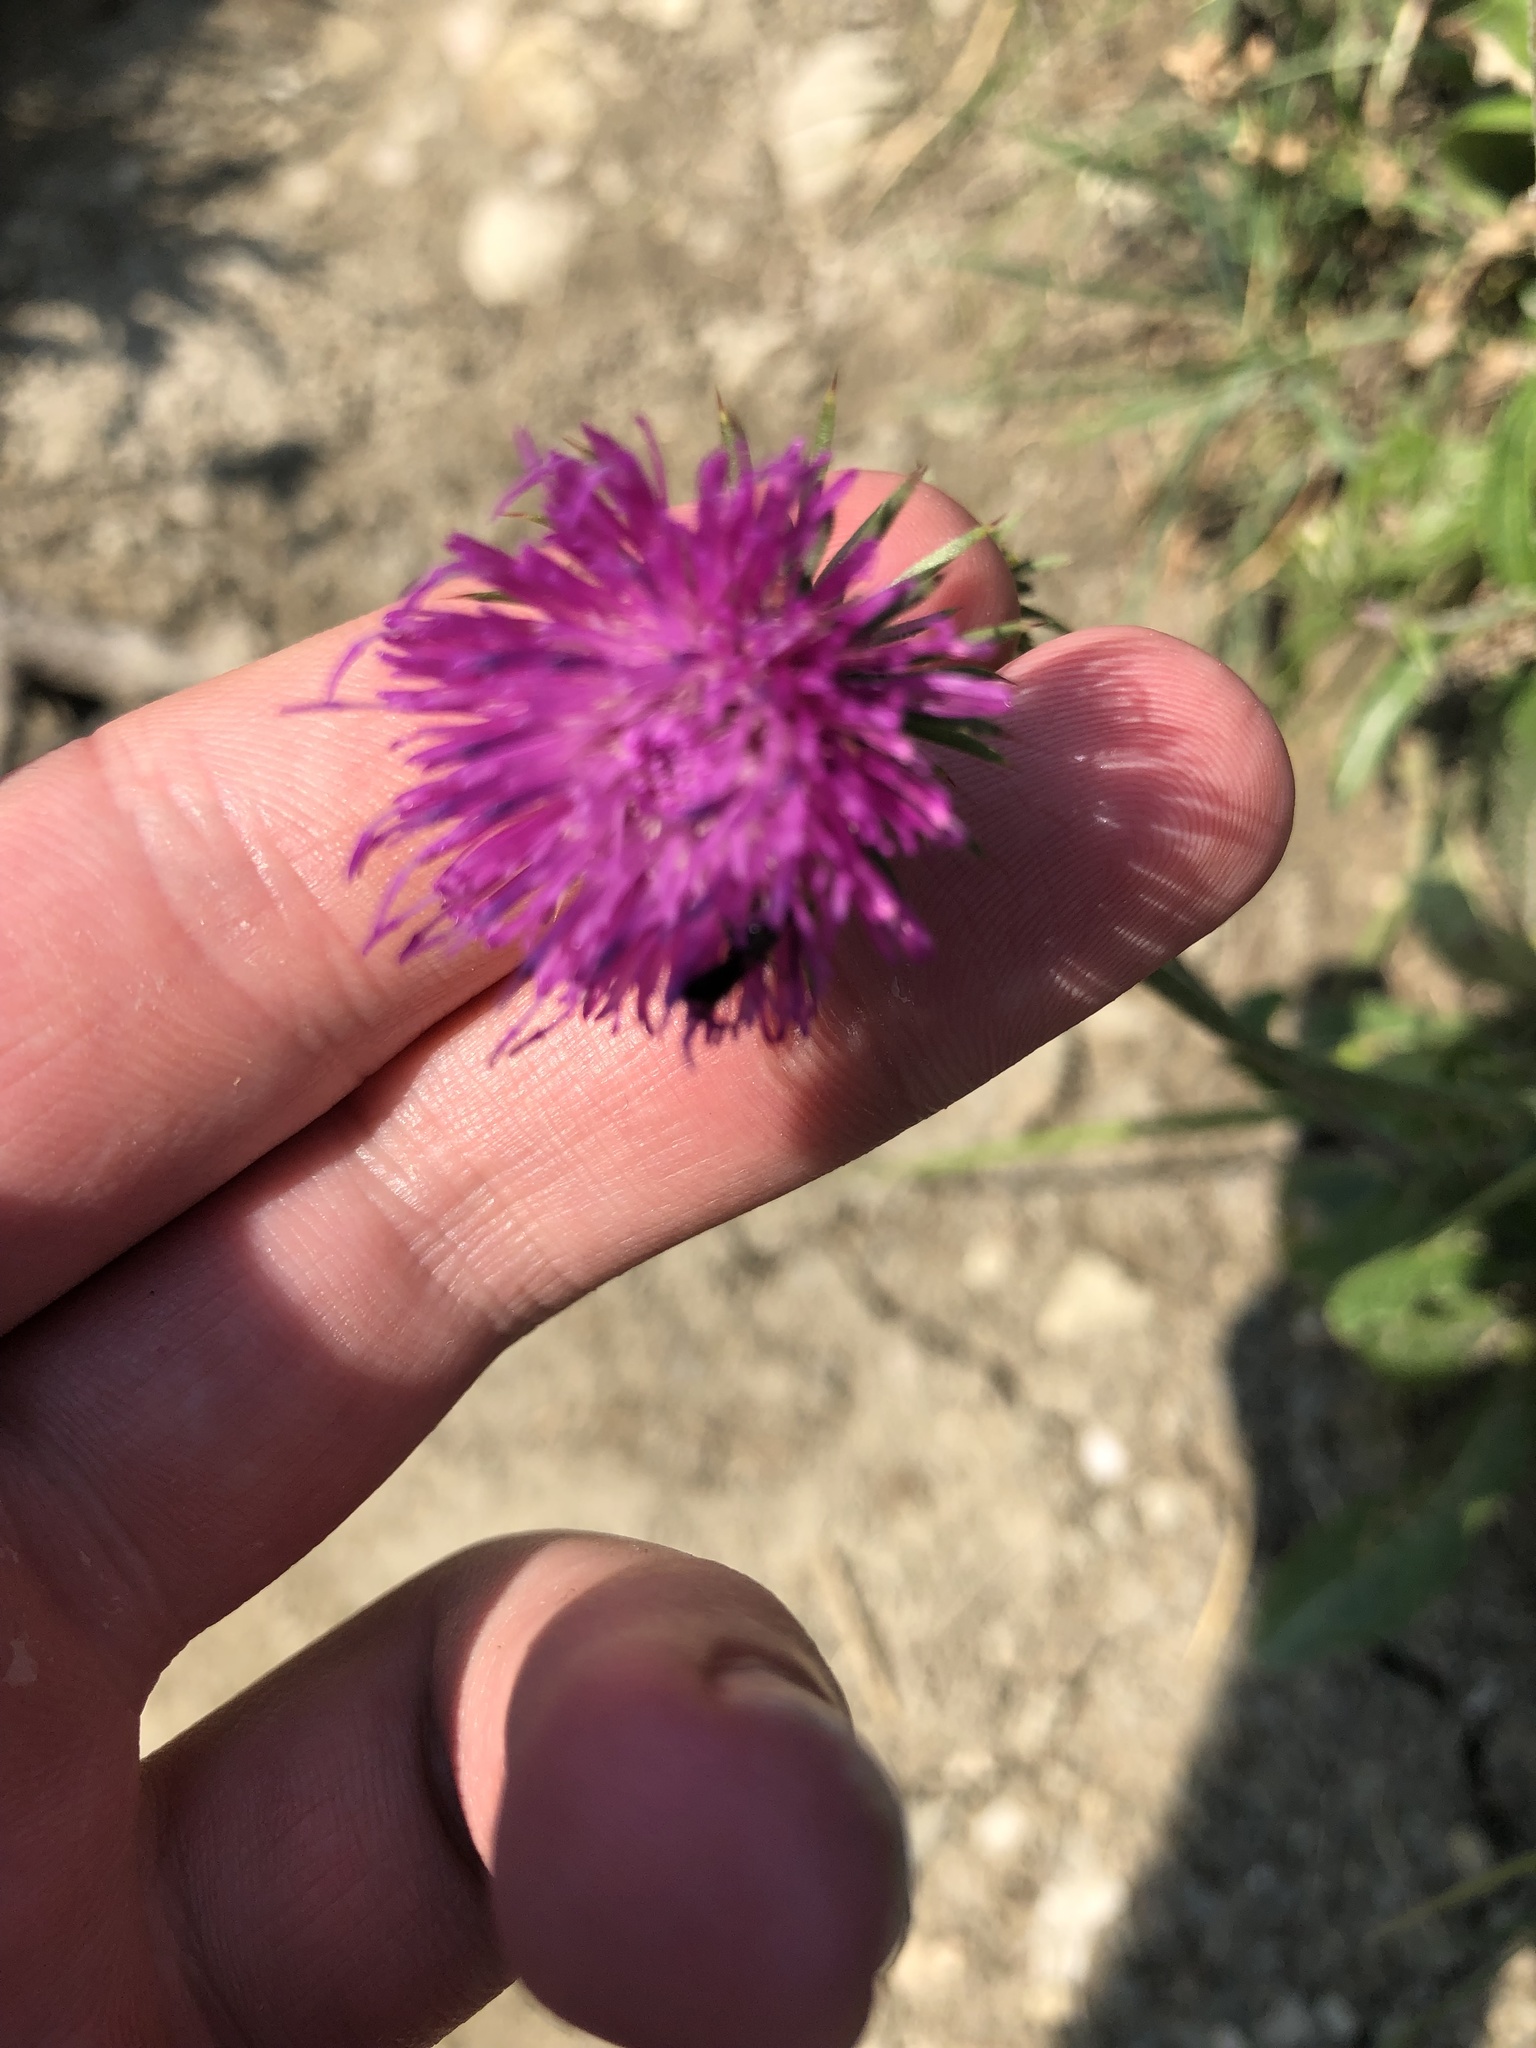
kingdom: Plantae
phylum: Tracheophyta
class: Magnoliopsida
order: Asterales
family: Asteraceae
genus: Carduus
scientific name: Carduus defloratus
